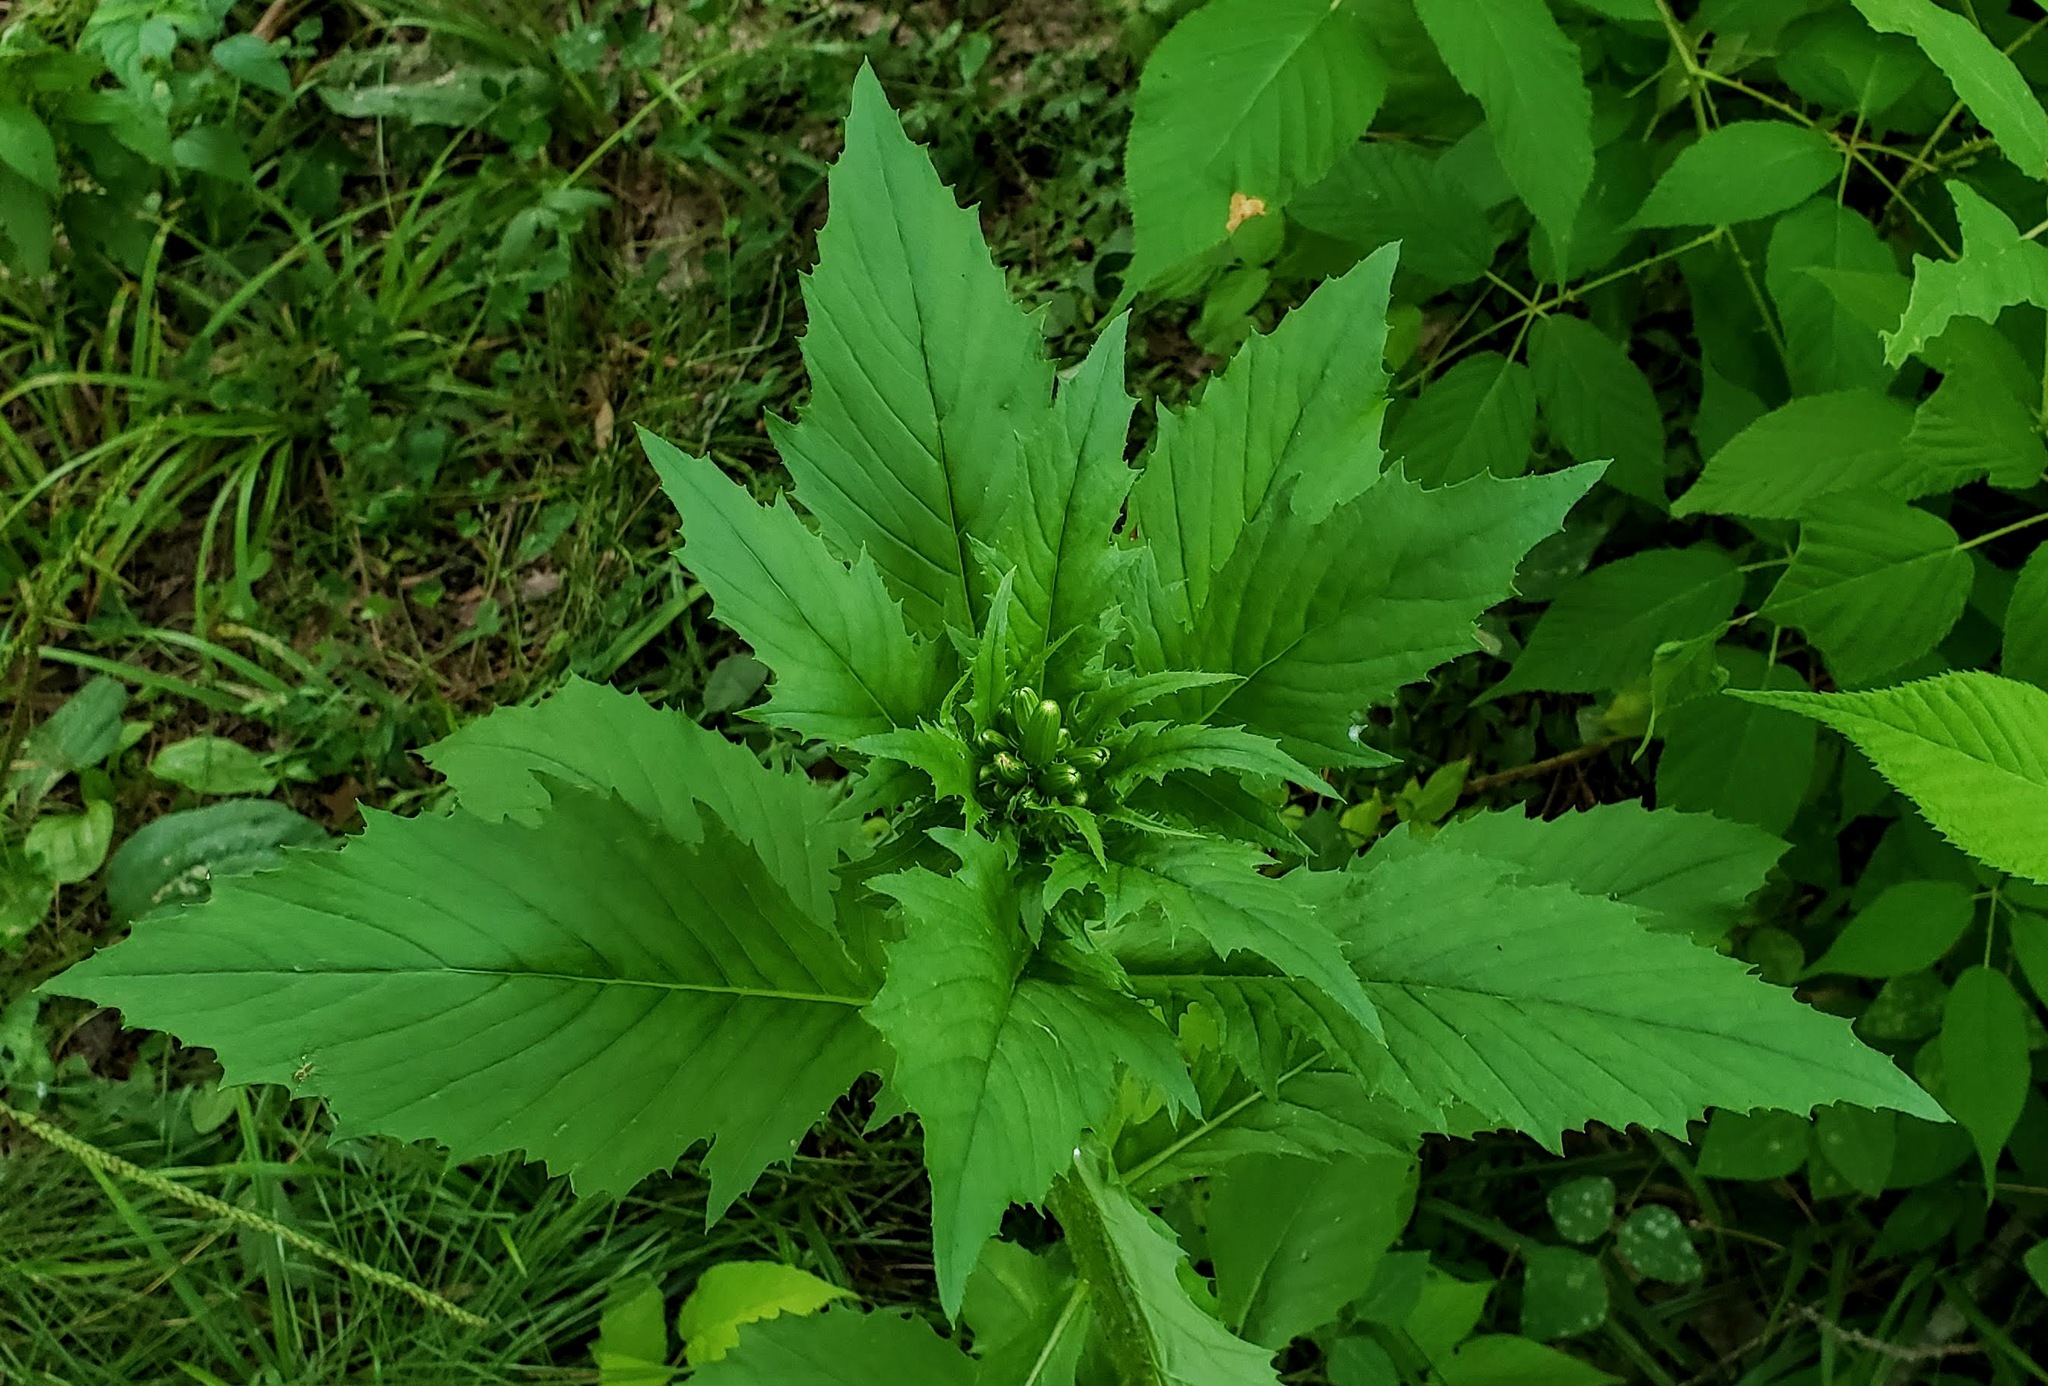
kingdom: Plantae
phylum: Tracheophyta
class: Magnoliopsida
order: Asterales
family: Asteraceae
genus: Erechtites
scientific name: Erechtites hieraciifolius
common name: American burnweed
